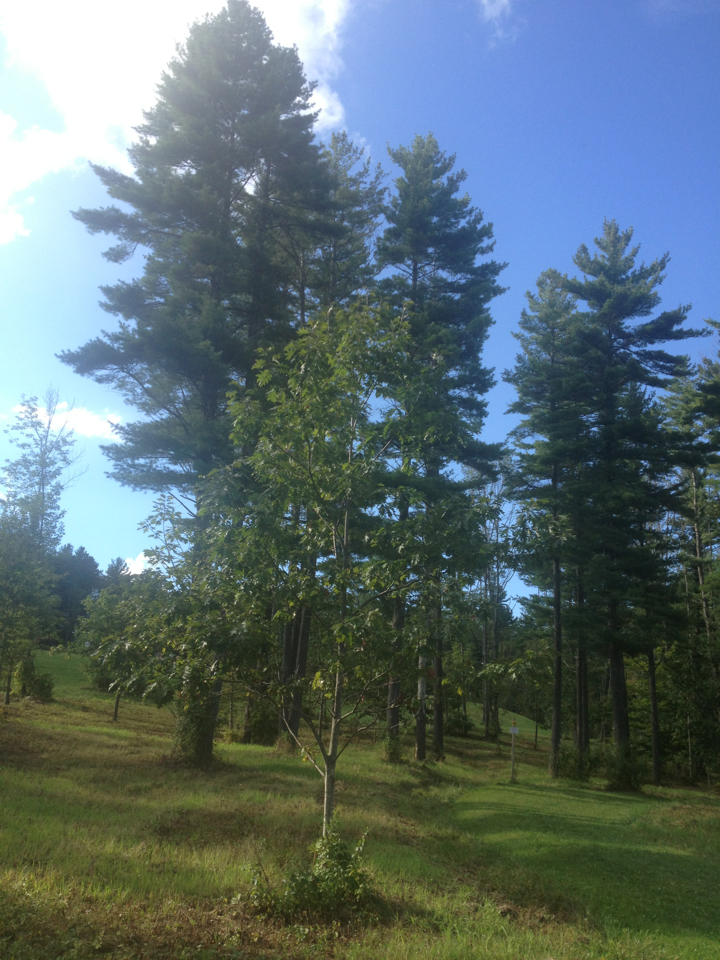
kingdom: Plantae
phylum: Tracheophyta
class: Magnoliopsida
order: Fagales
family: Fagaceae
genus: Quercus
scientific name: Quercus rubra
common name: Red oak
